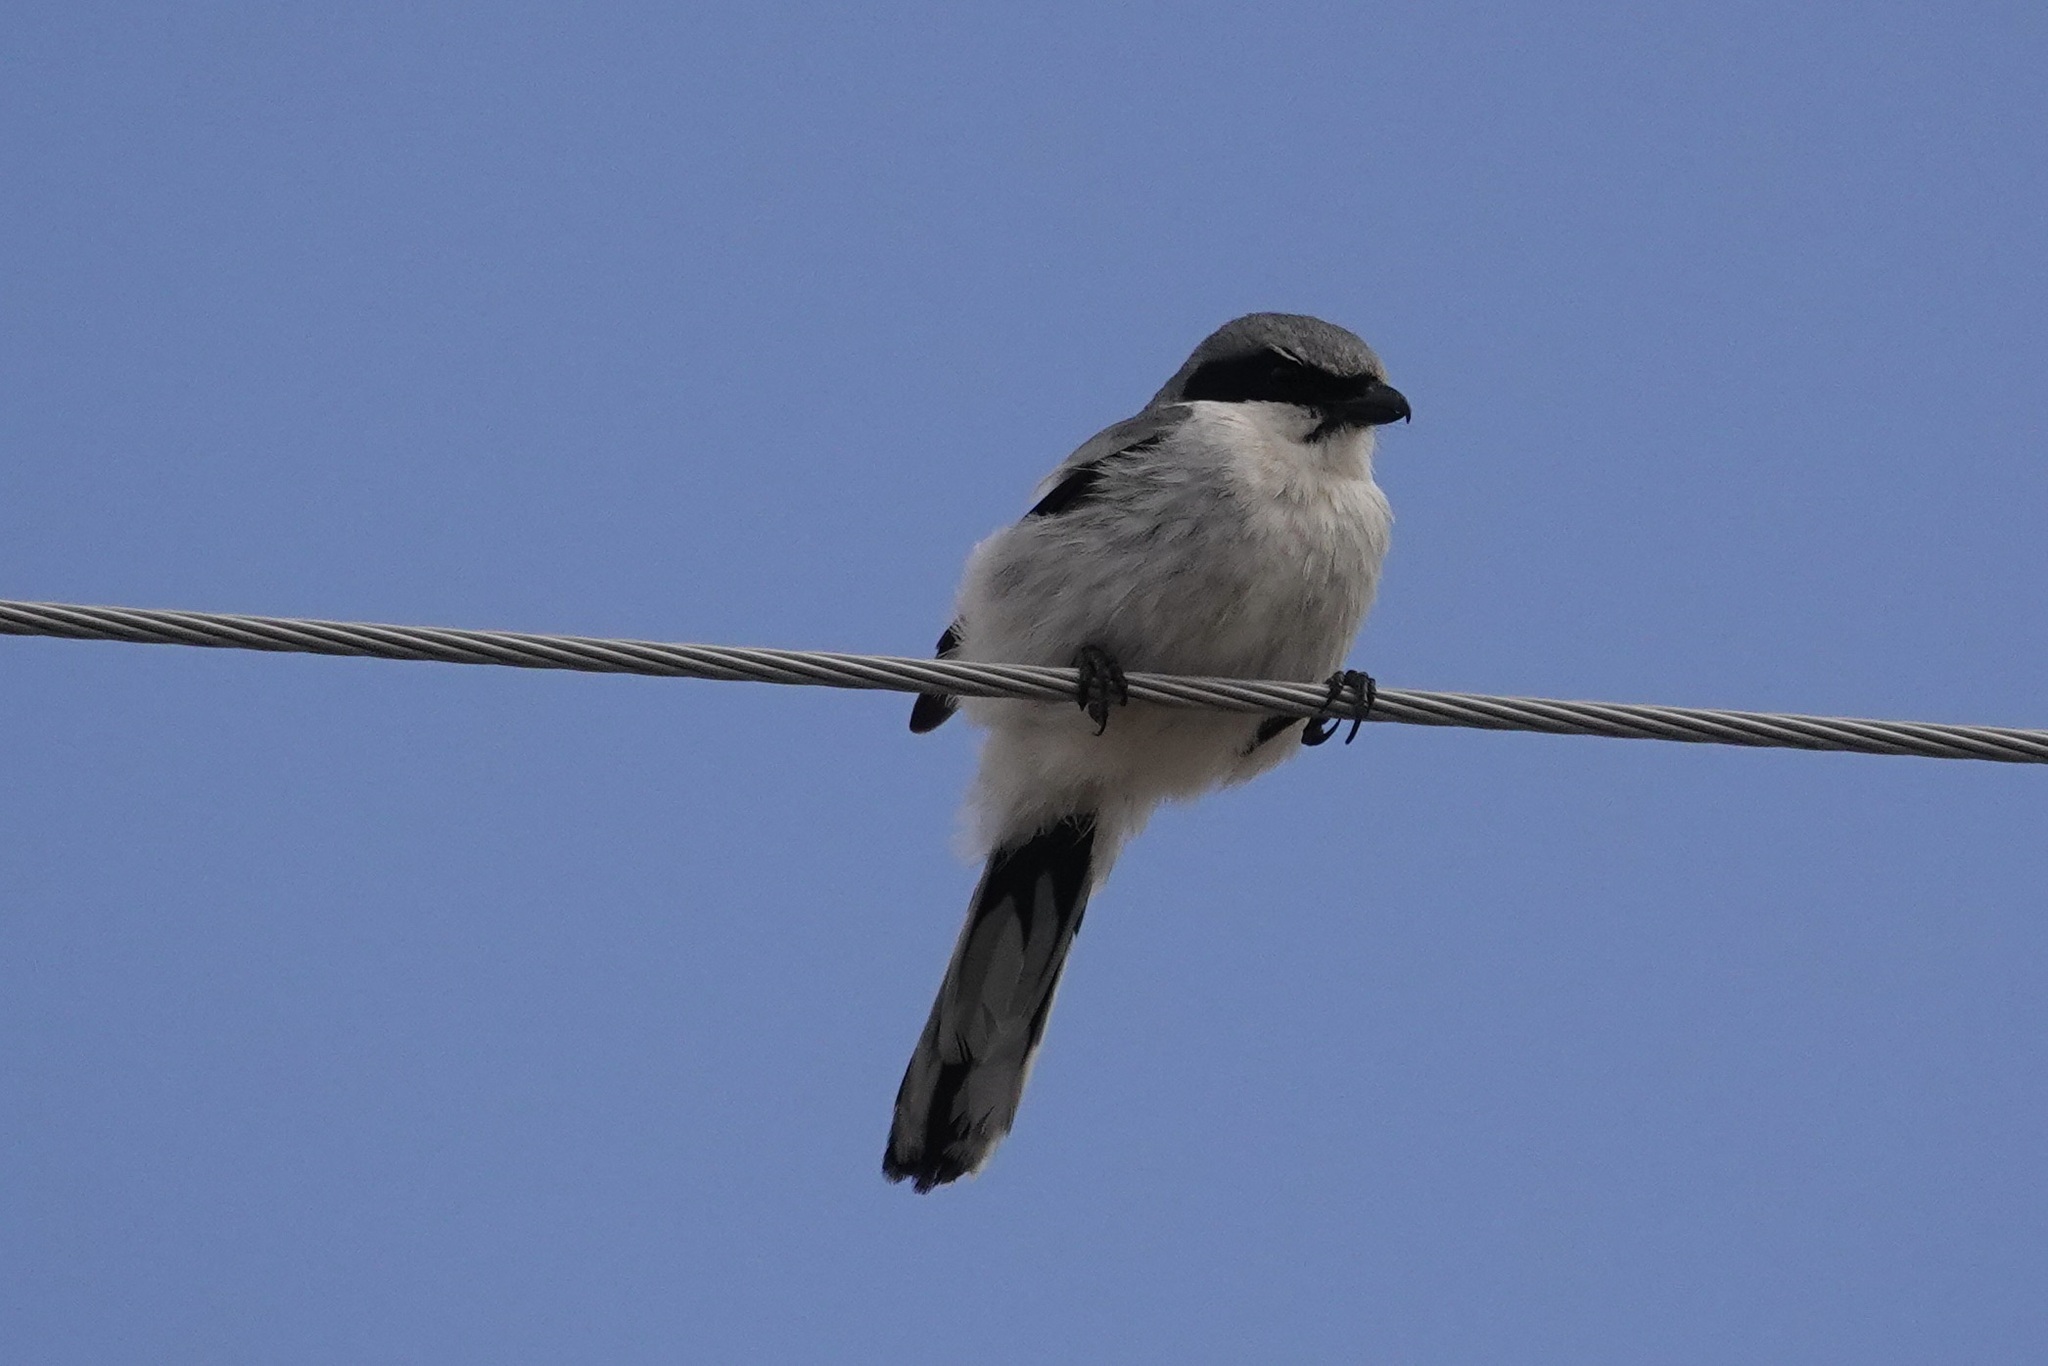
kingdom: Animalia
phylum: Chordata
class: Aves
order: Passeriformes
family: Laniidae
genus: Lanius
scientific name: Lanius ludovicianus
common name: Loggerhead shrike
